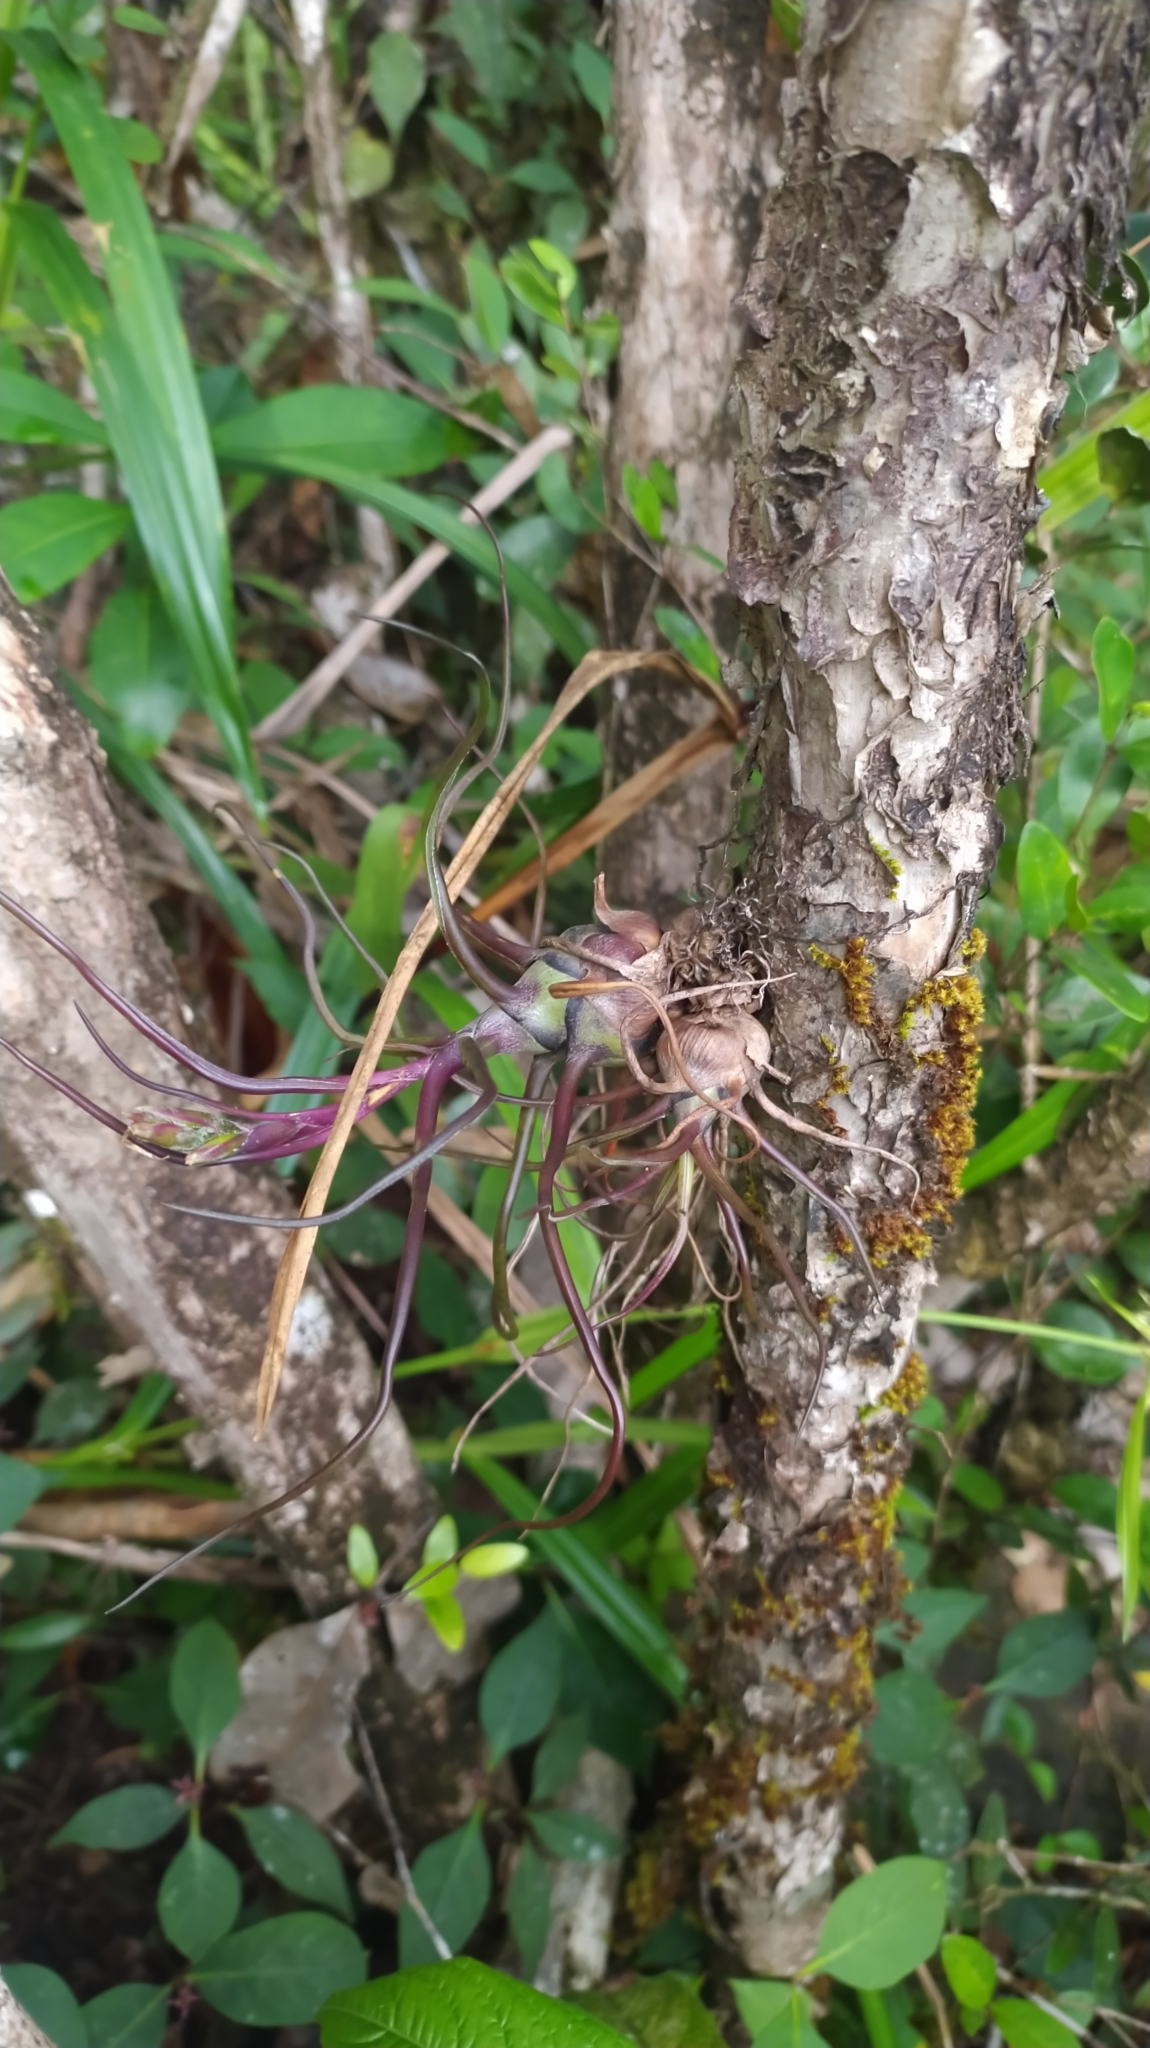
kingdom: Plantae
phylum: Tracheophyta
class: Liliopsida
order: Poales
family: Bromeliaceae
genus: Tillandsia
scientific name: Tillandsia bulbosa
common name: Bulbous airplant
